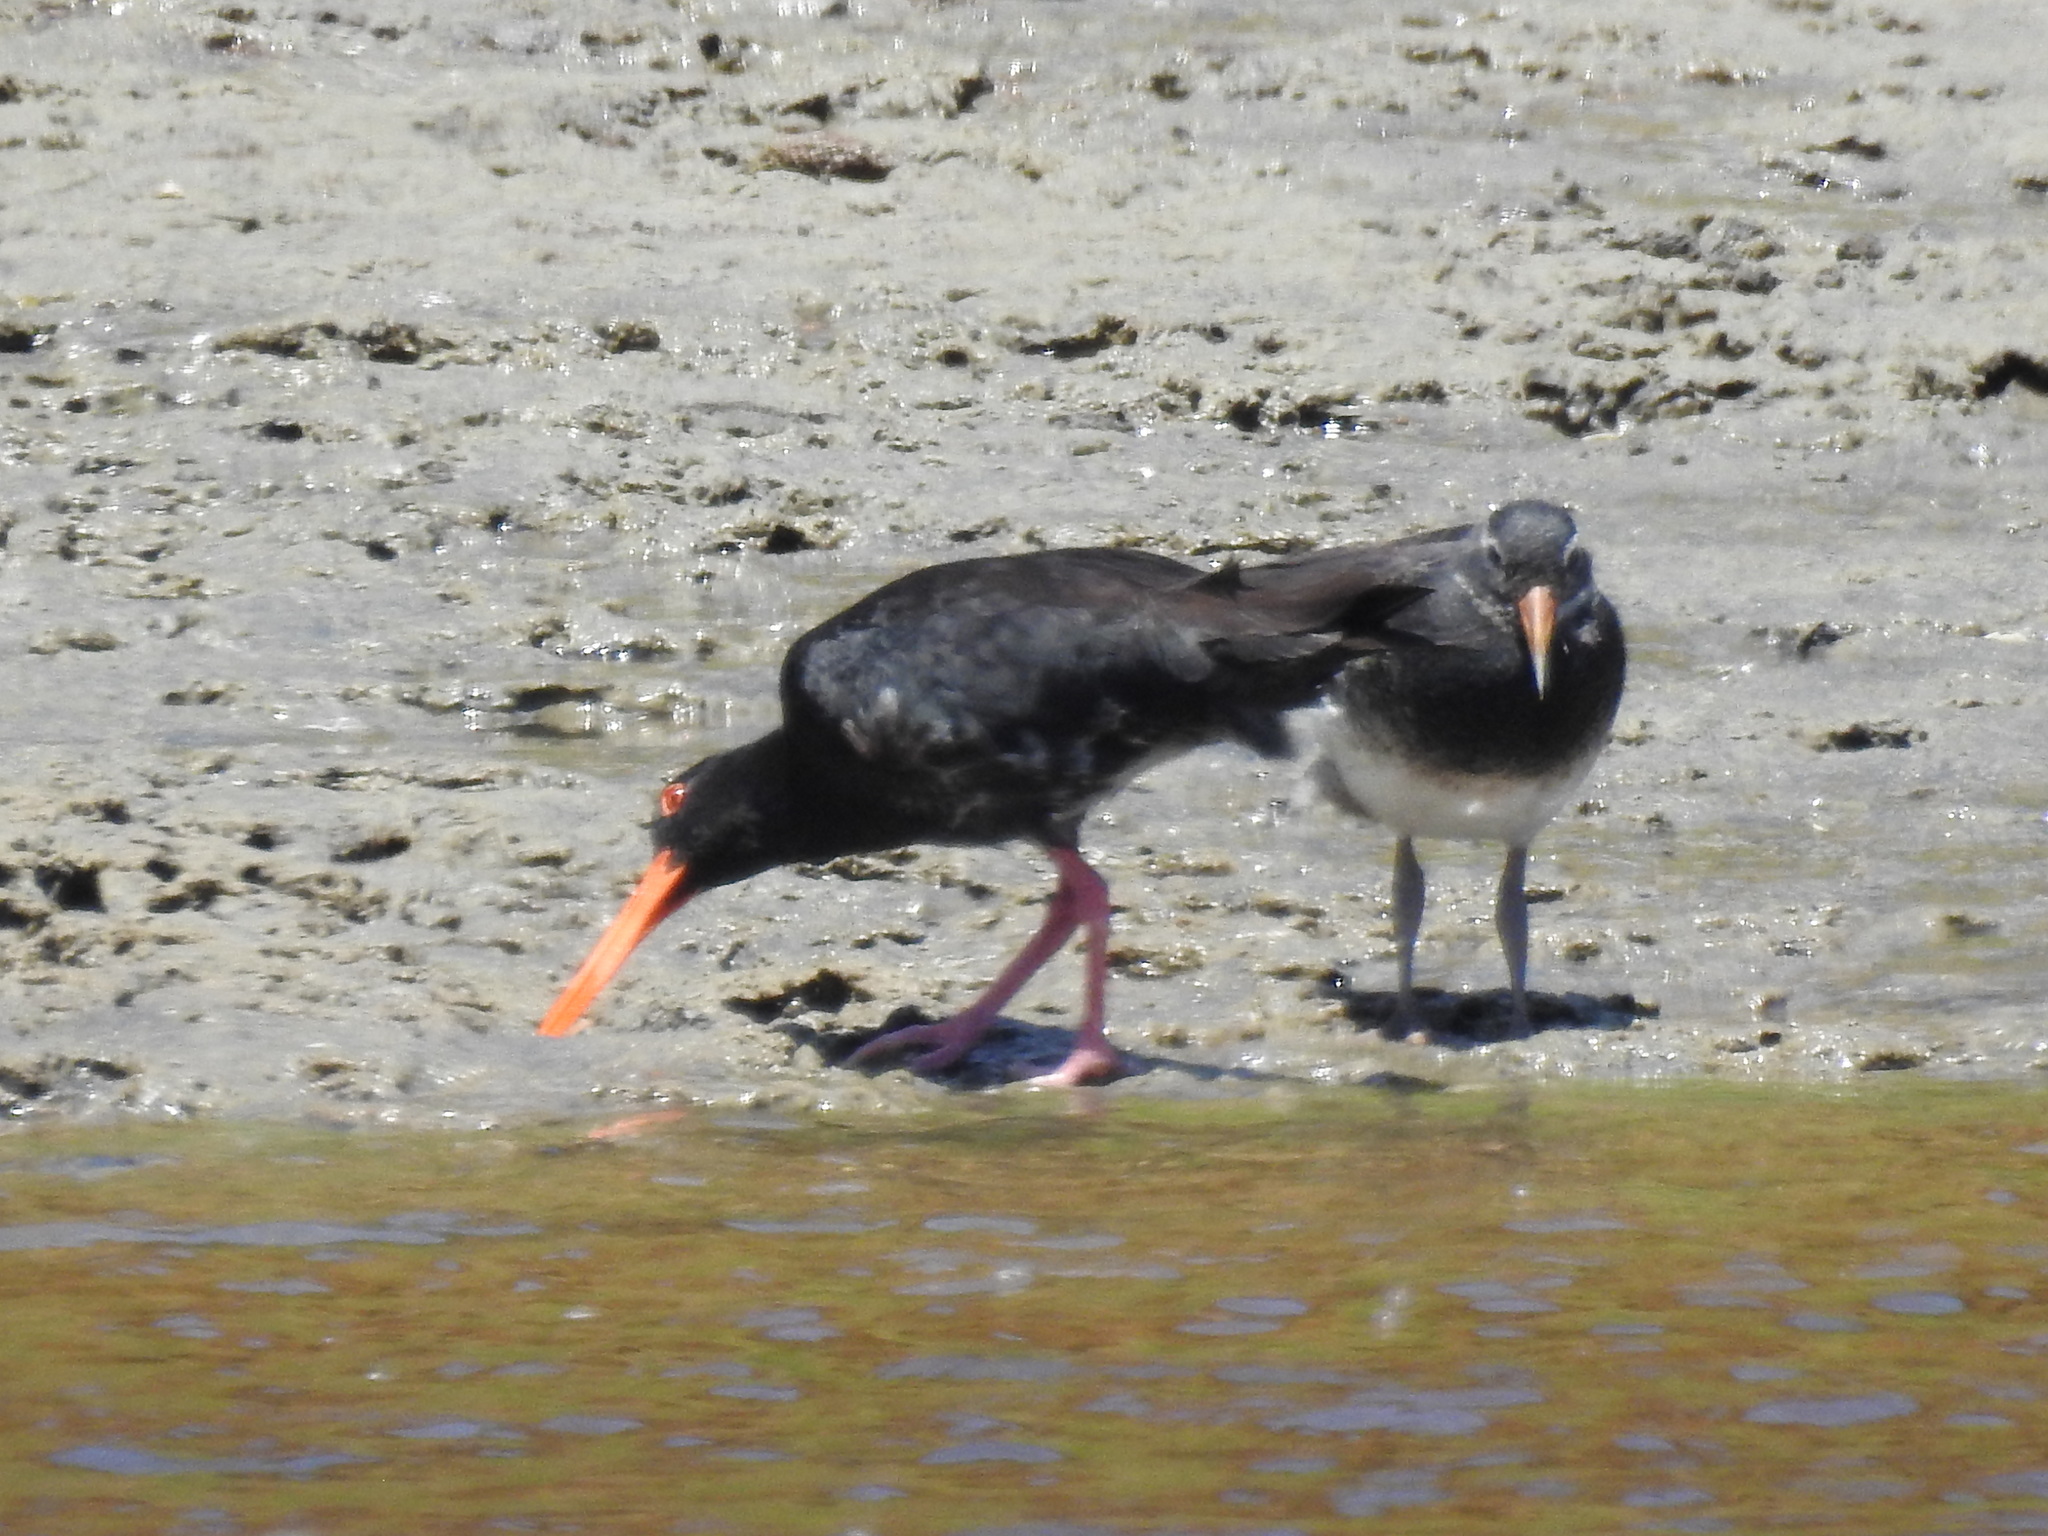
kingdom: Animalia
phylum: Chordata
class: Aves
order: Charadriiformes
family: Haematopodidae
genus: Haematopus
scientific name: Haematopus unicolor
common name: Variable oystercatcher
